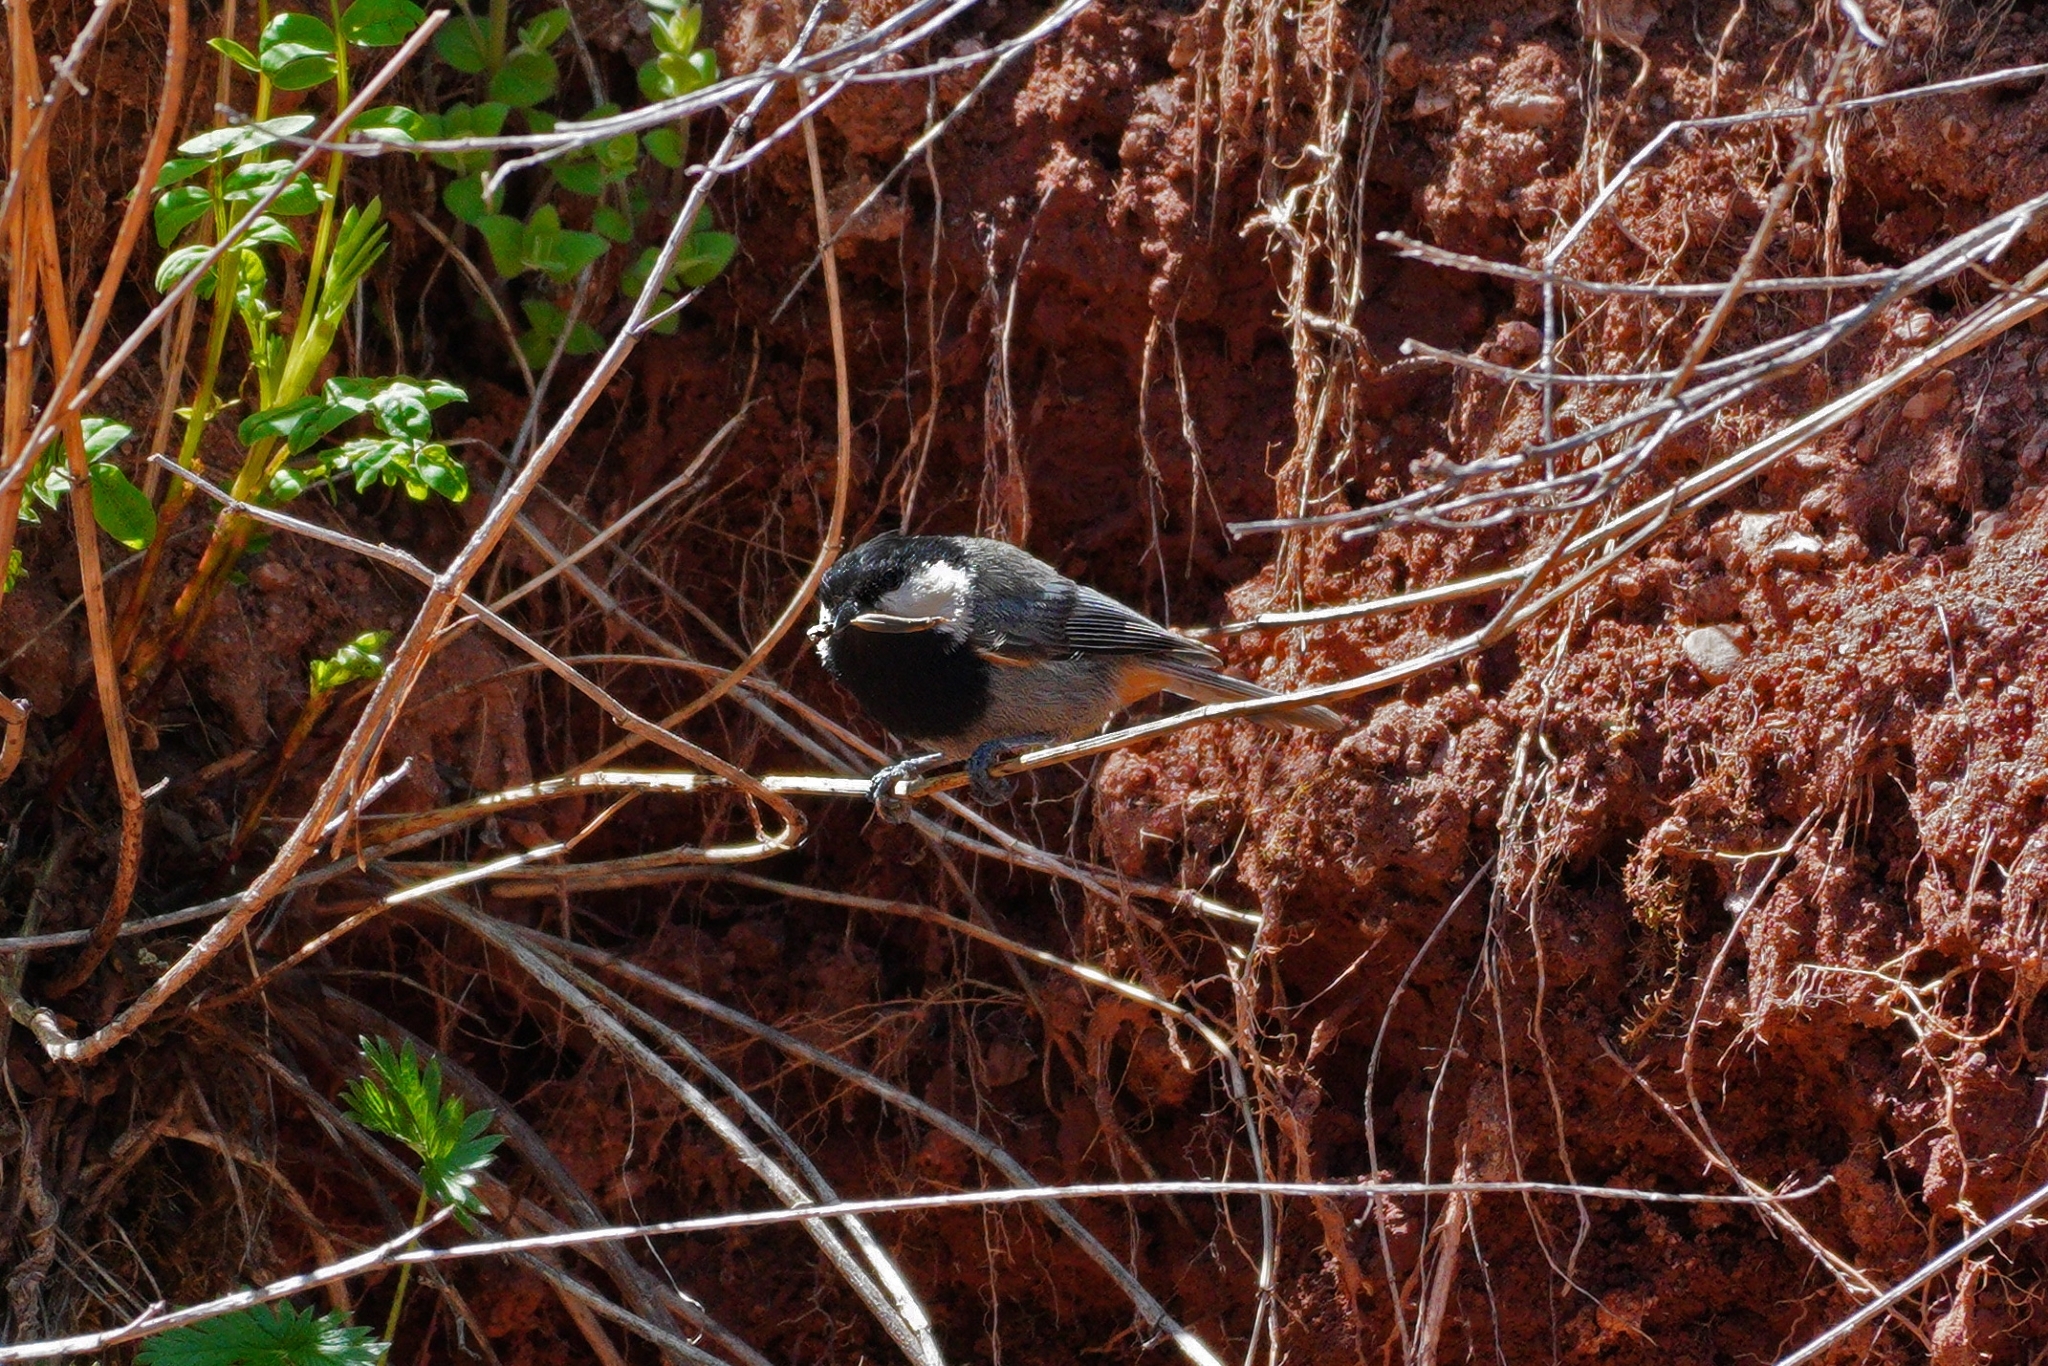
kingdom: Animalia
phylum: Chordata
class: Aves
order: Passeriformes
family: Paridae
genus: Periparus
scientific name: Periparus rufonuchalis
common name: Rufous-naped tit
